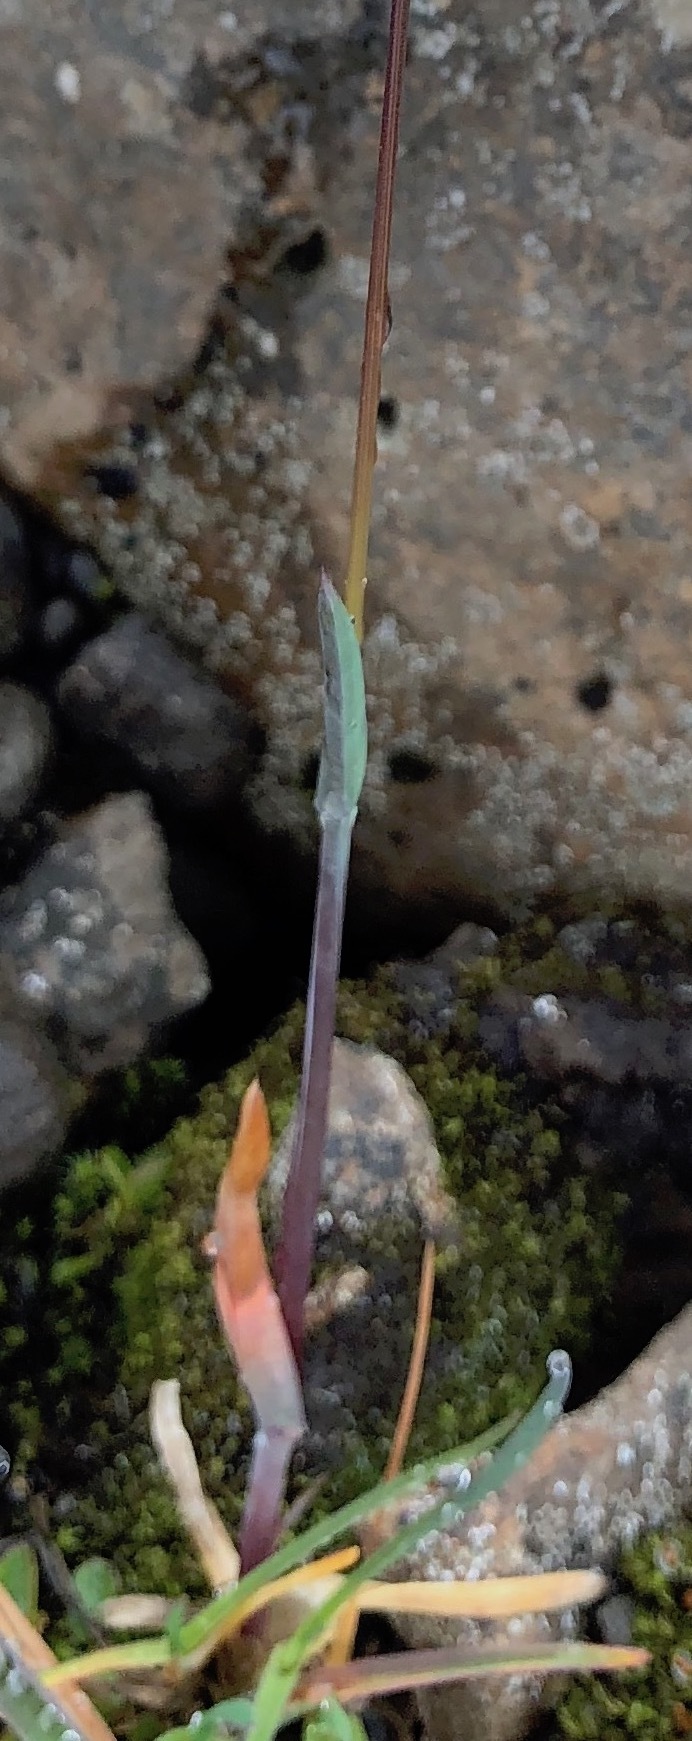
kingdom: Plantae
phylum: Tracheophyta
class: Liliopsida
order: Poales
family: Poaceae
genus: Poa
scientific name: Poa alpina
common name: Alpine bluegrass
